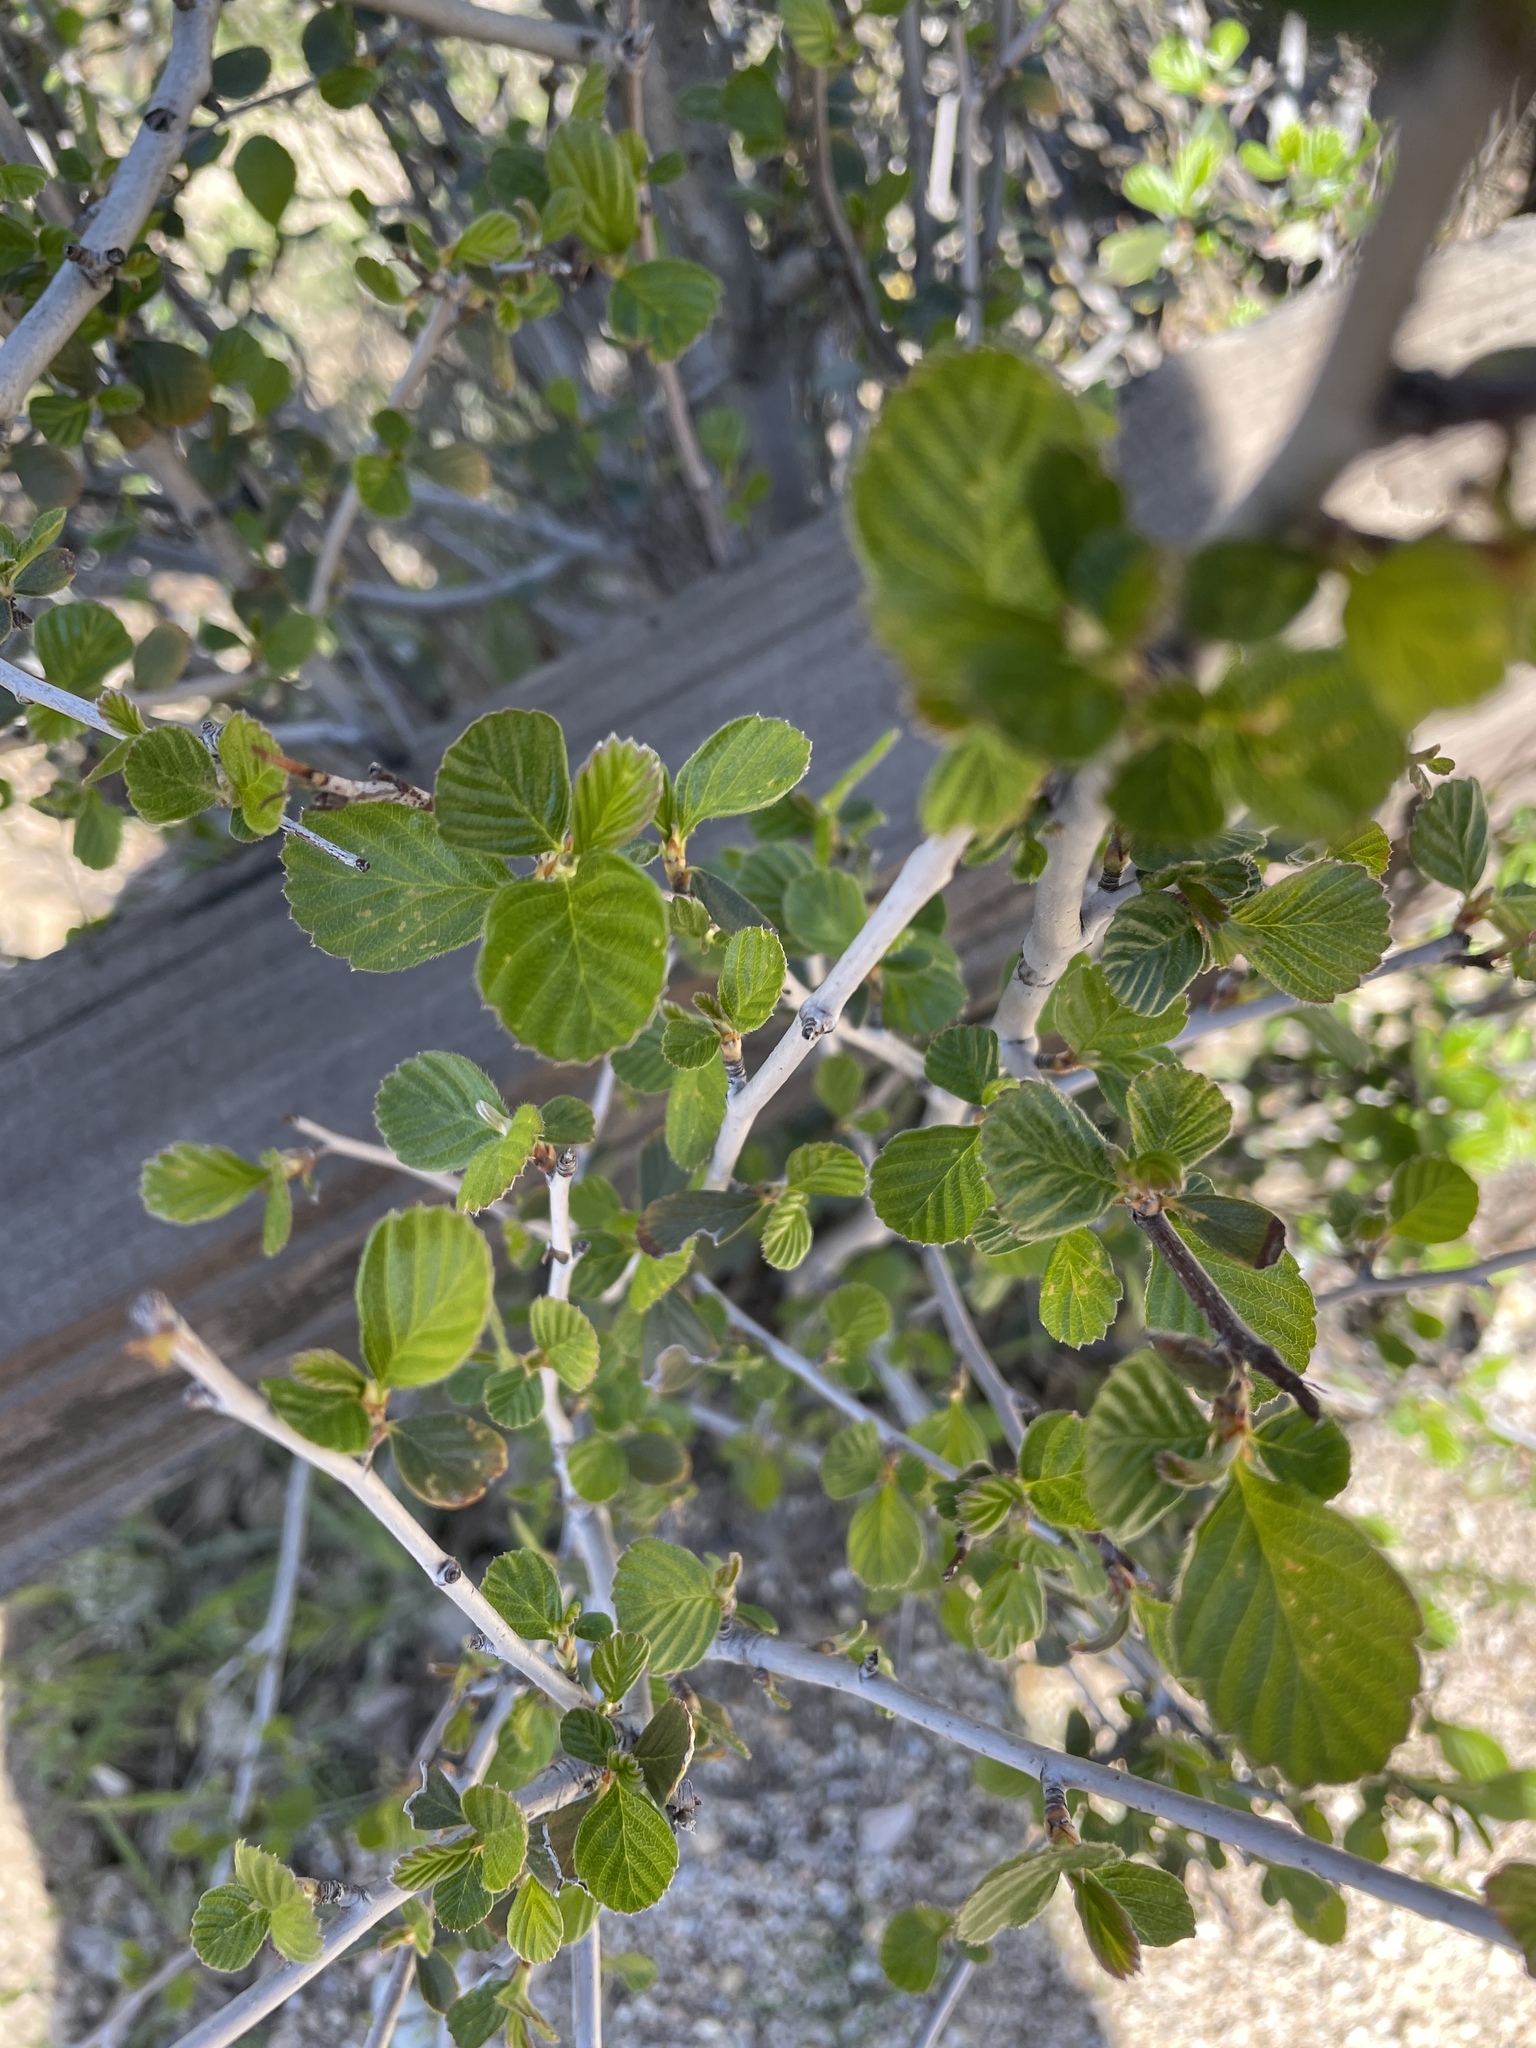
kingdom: Plantae
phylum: Tracheophyta
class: Magnoliopsida
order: Rosales
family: Rosaceae
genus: Cercocarpus
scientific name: Cercocarpus betuloides
